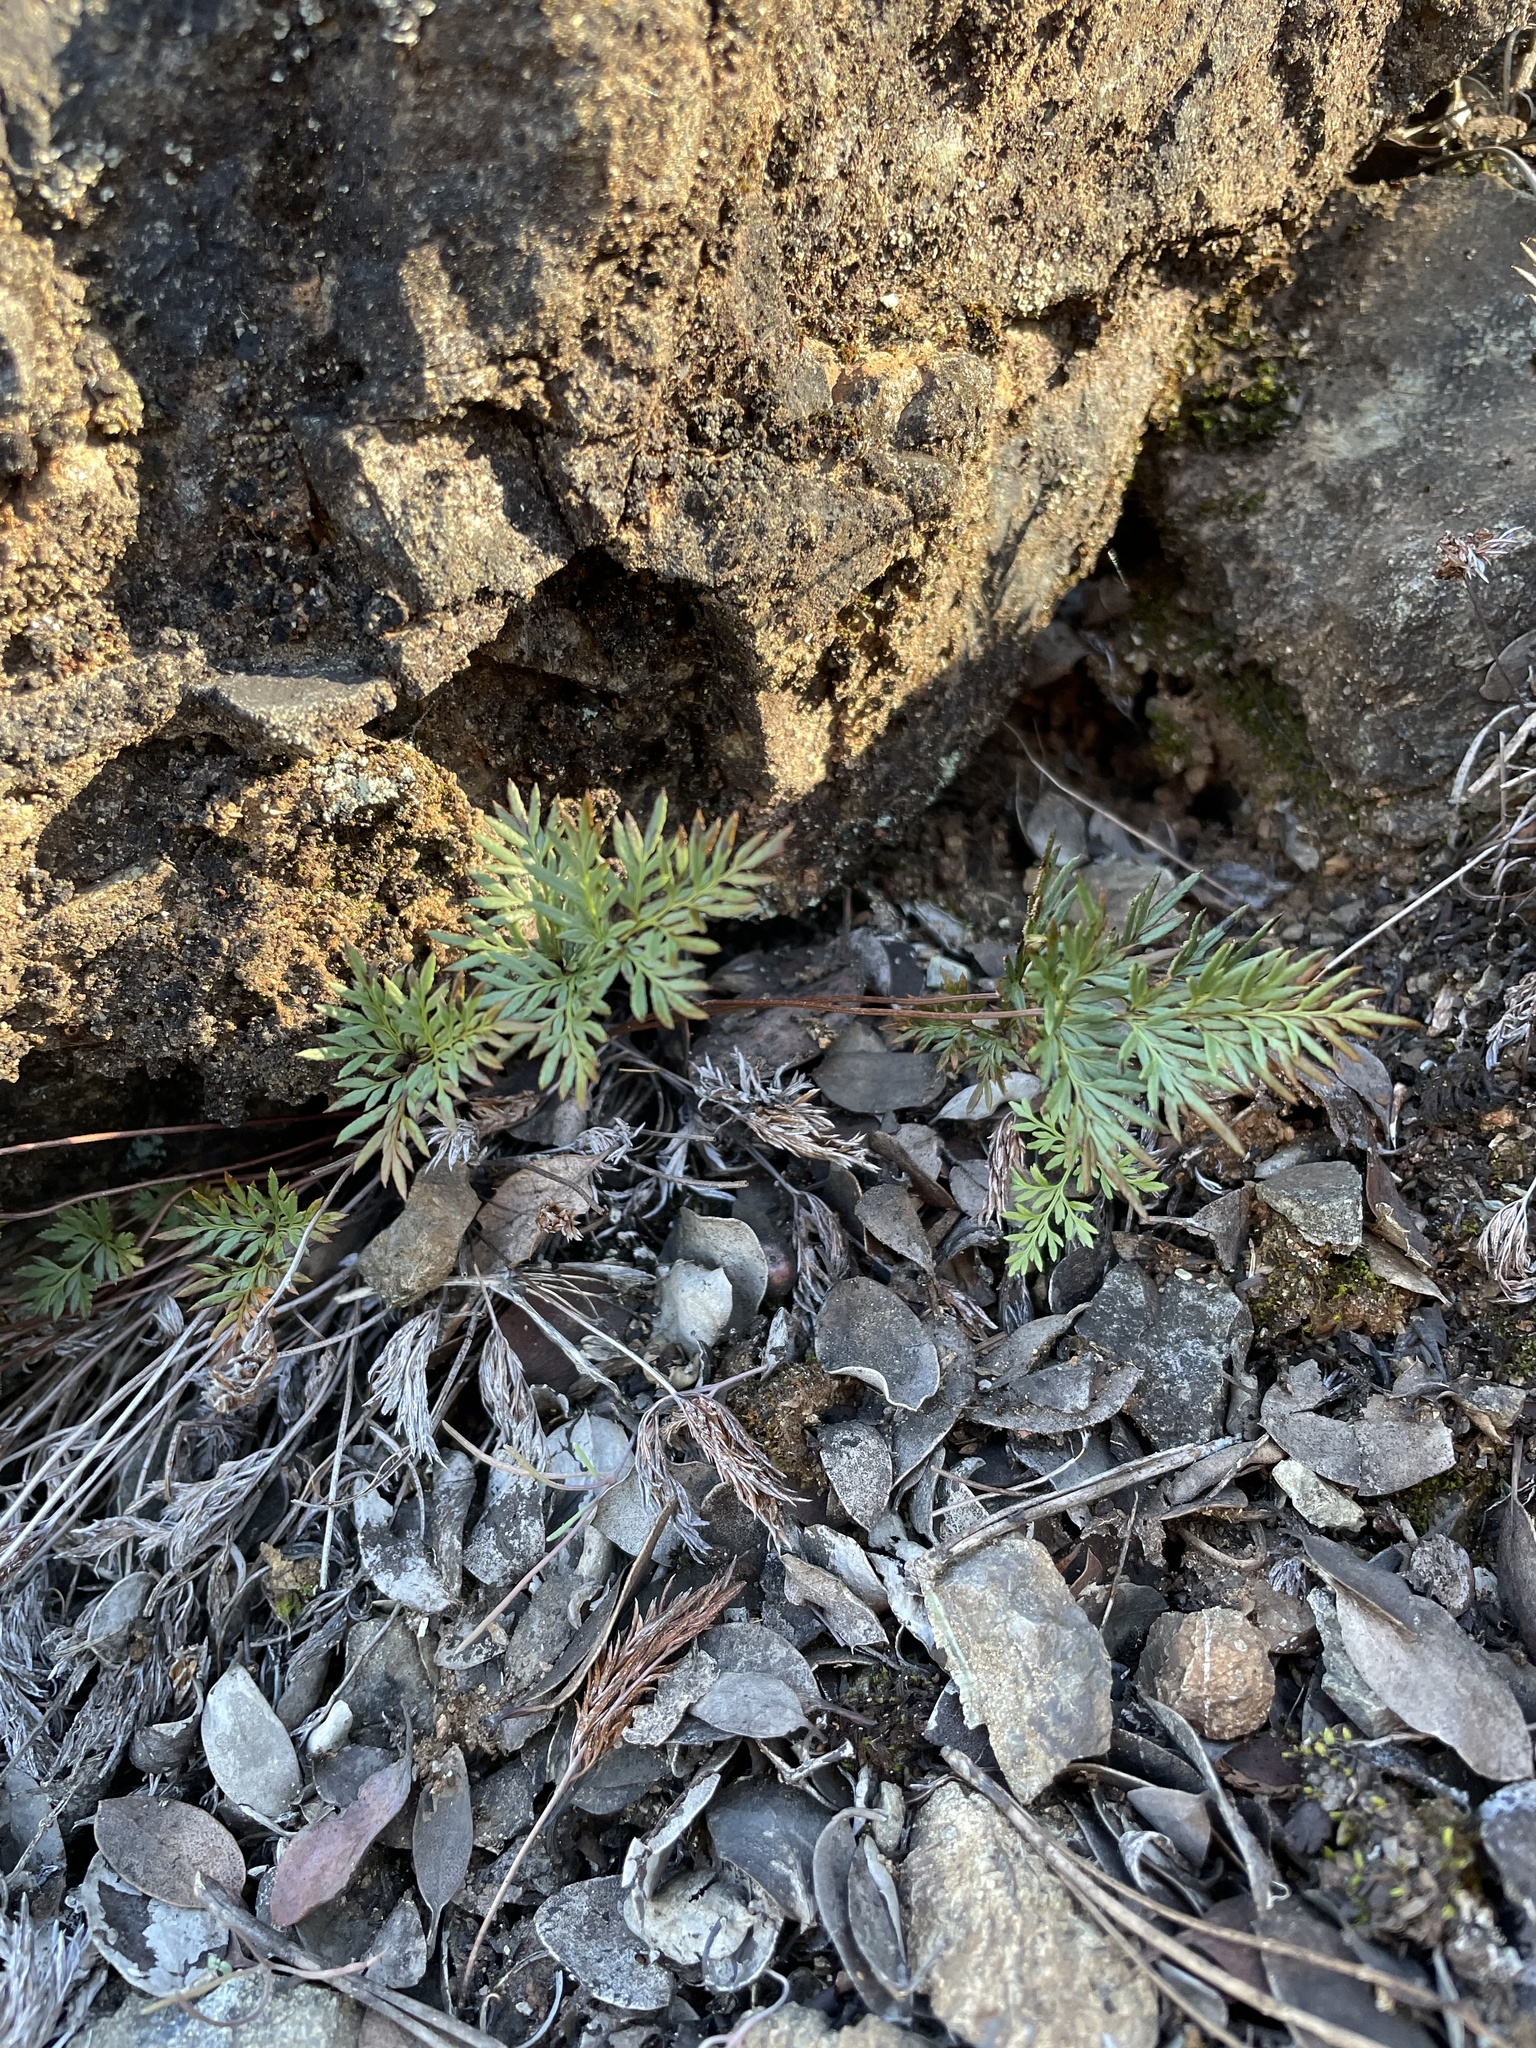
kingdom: Plantae
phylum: Tracheophyta
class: Polypodiopsida
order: Polypodiales
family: Pteridaceae
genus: Aspidotis
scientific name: Aspidotis densa
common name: Indian's dream
